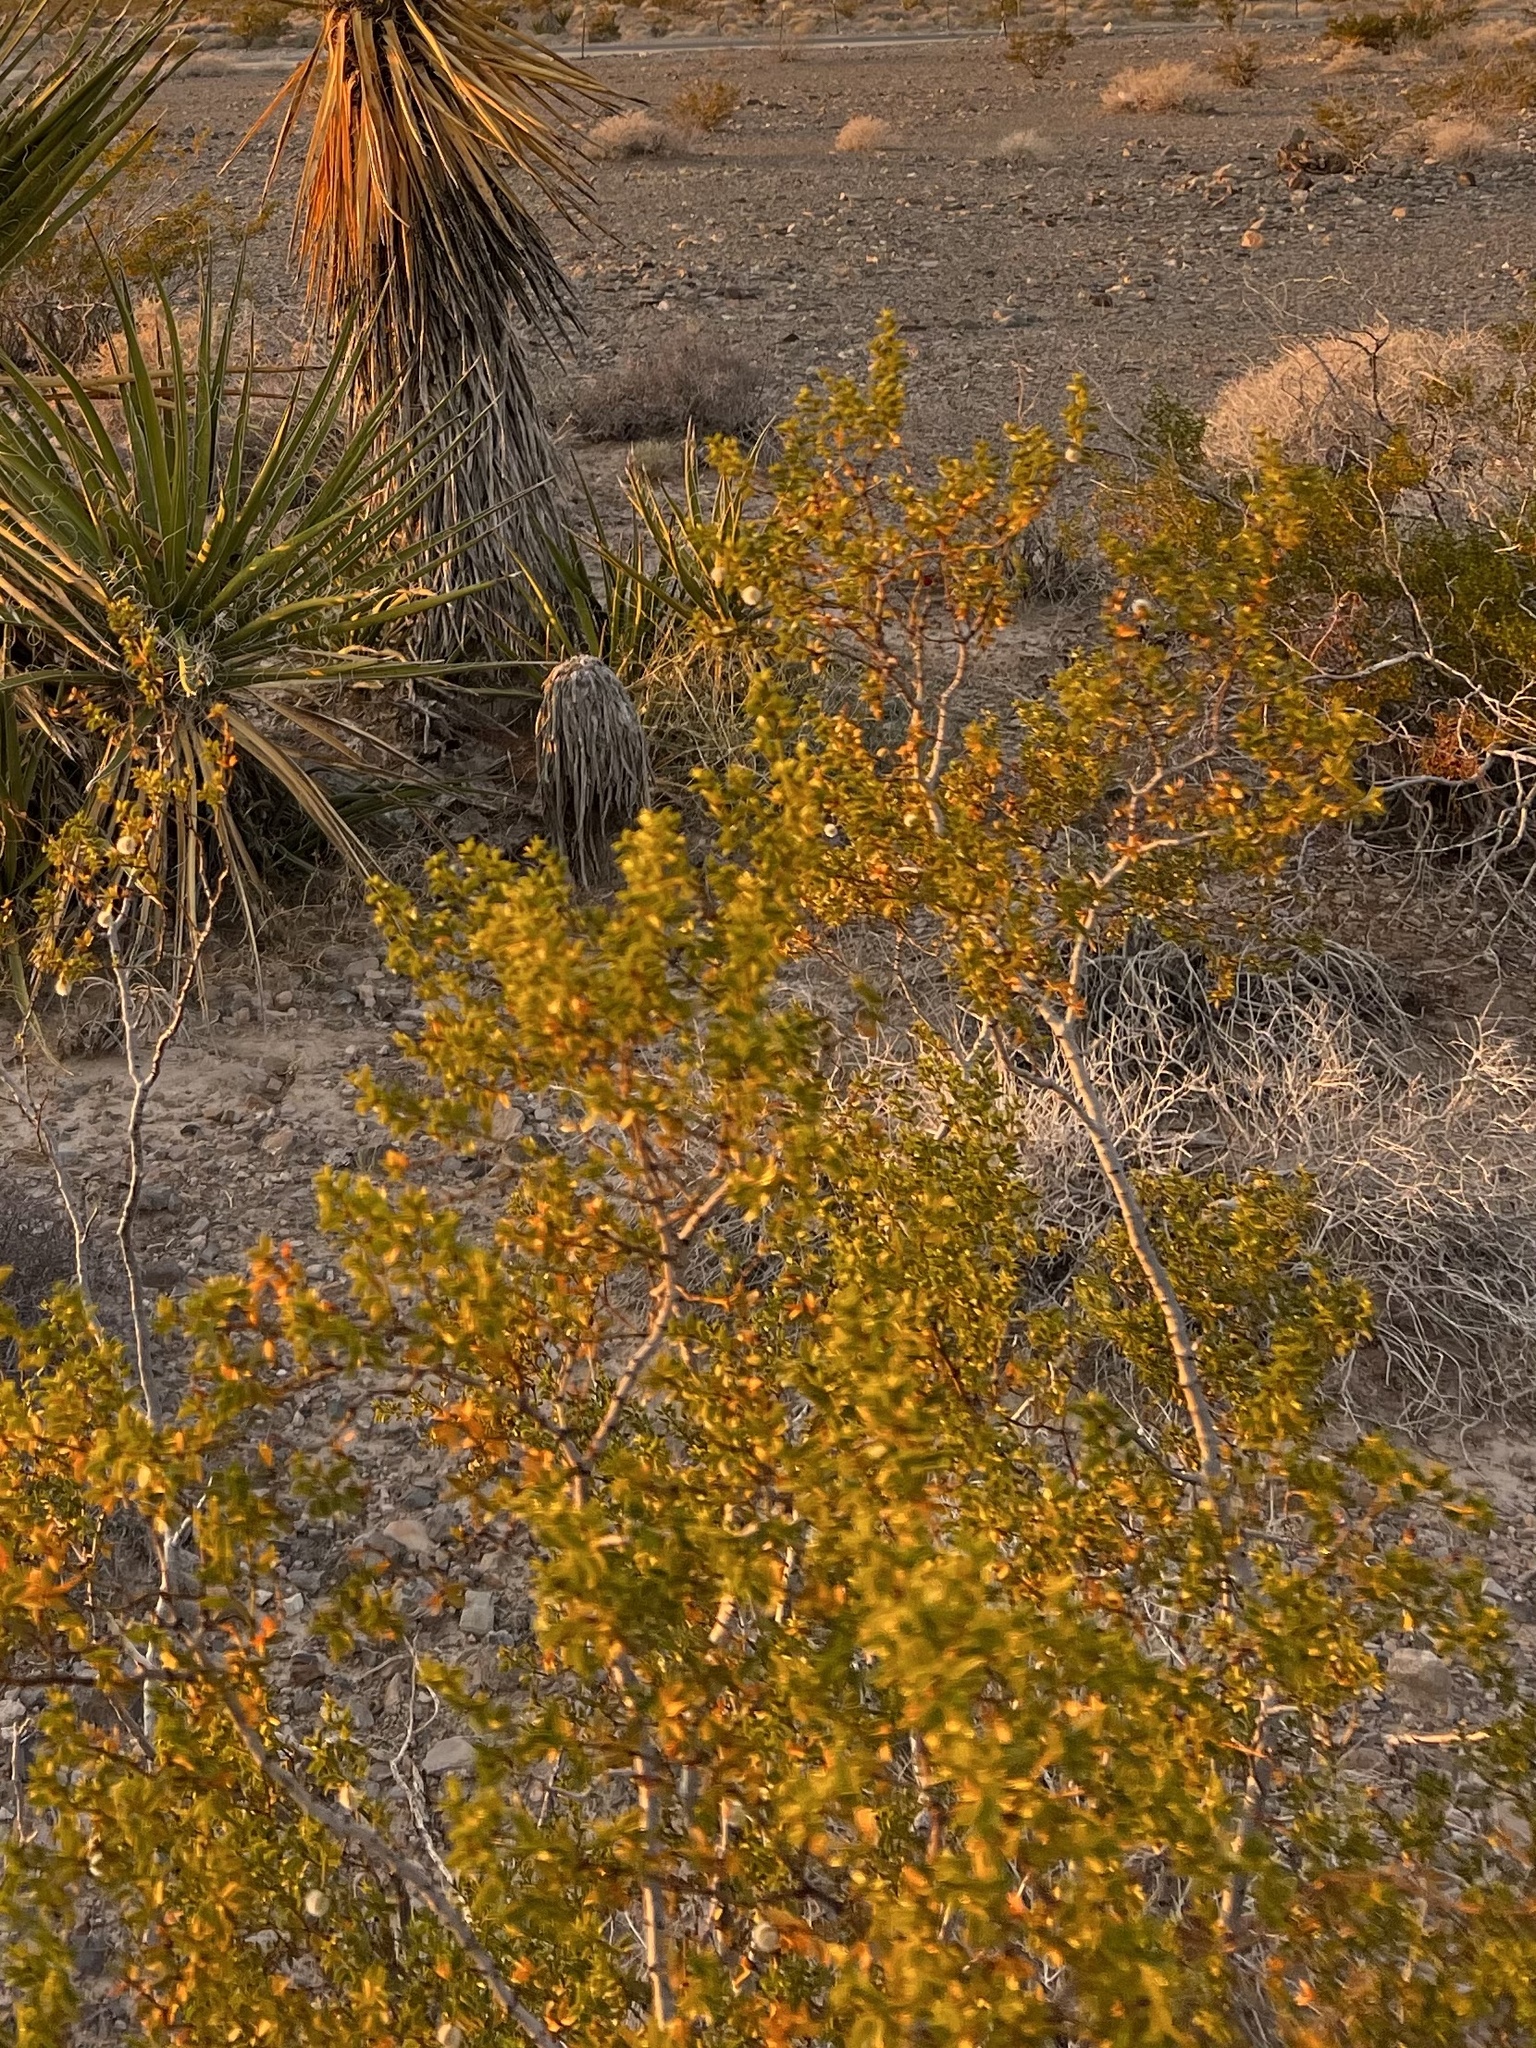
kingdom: Plantae
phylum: Tracheophyta
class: Magnoliopsida
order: Zygophyllales
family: Zygophyllaceae
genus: Larrea
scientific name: Larrea tridentata
